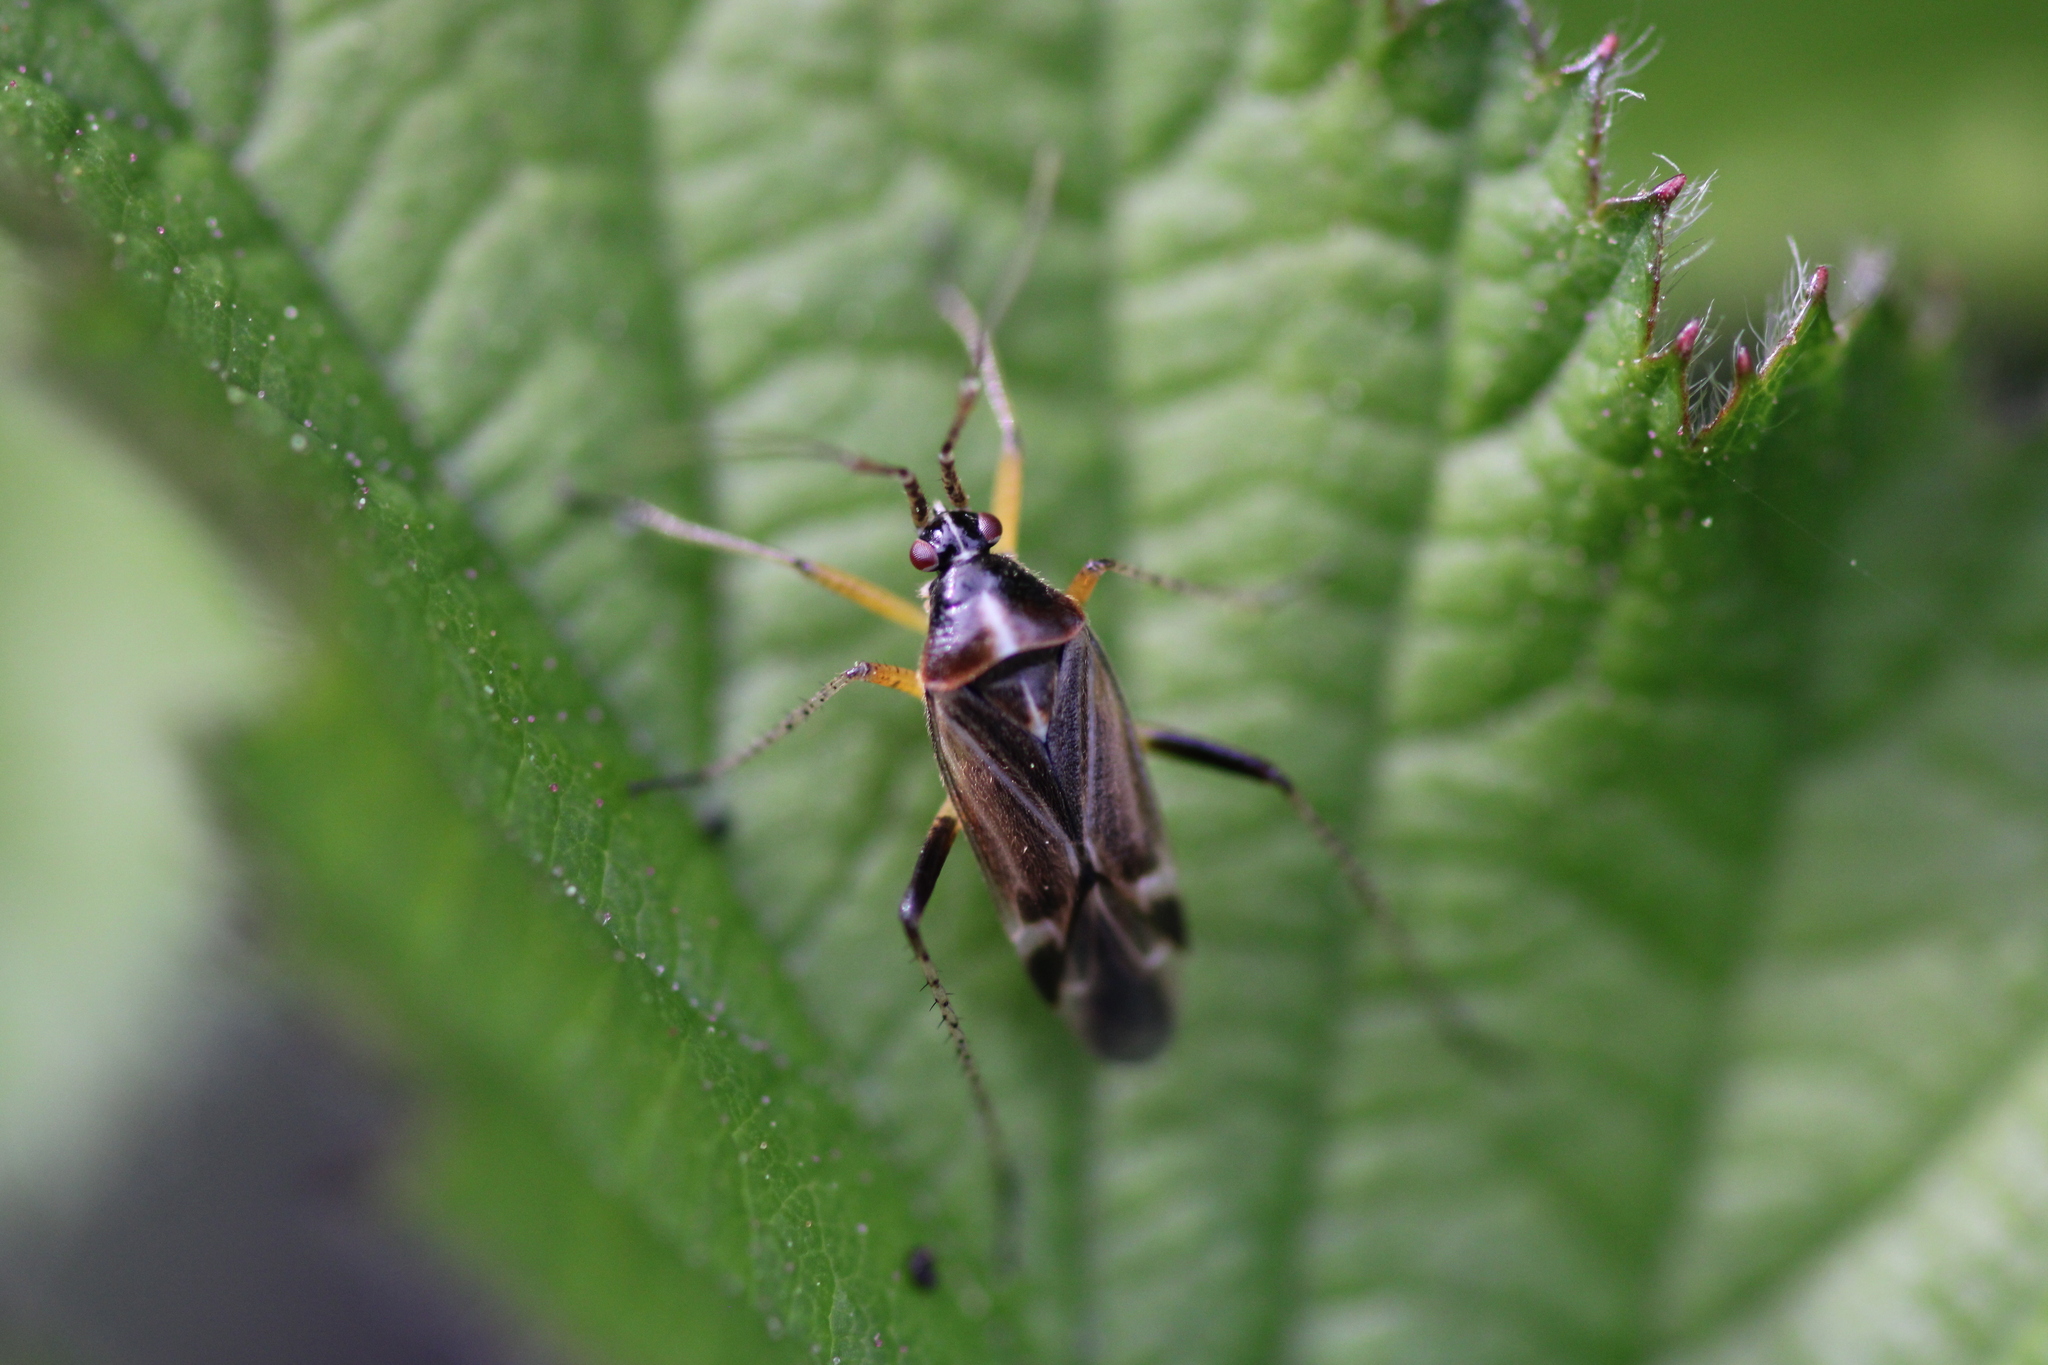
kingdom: Animalia
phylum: Arthropoda
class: Insecta
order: Hemiptera
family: Miridae
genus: Harpocera
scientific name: Harpocera thoracica
